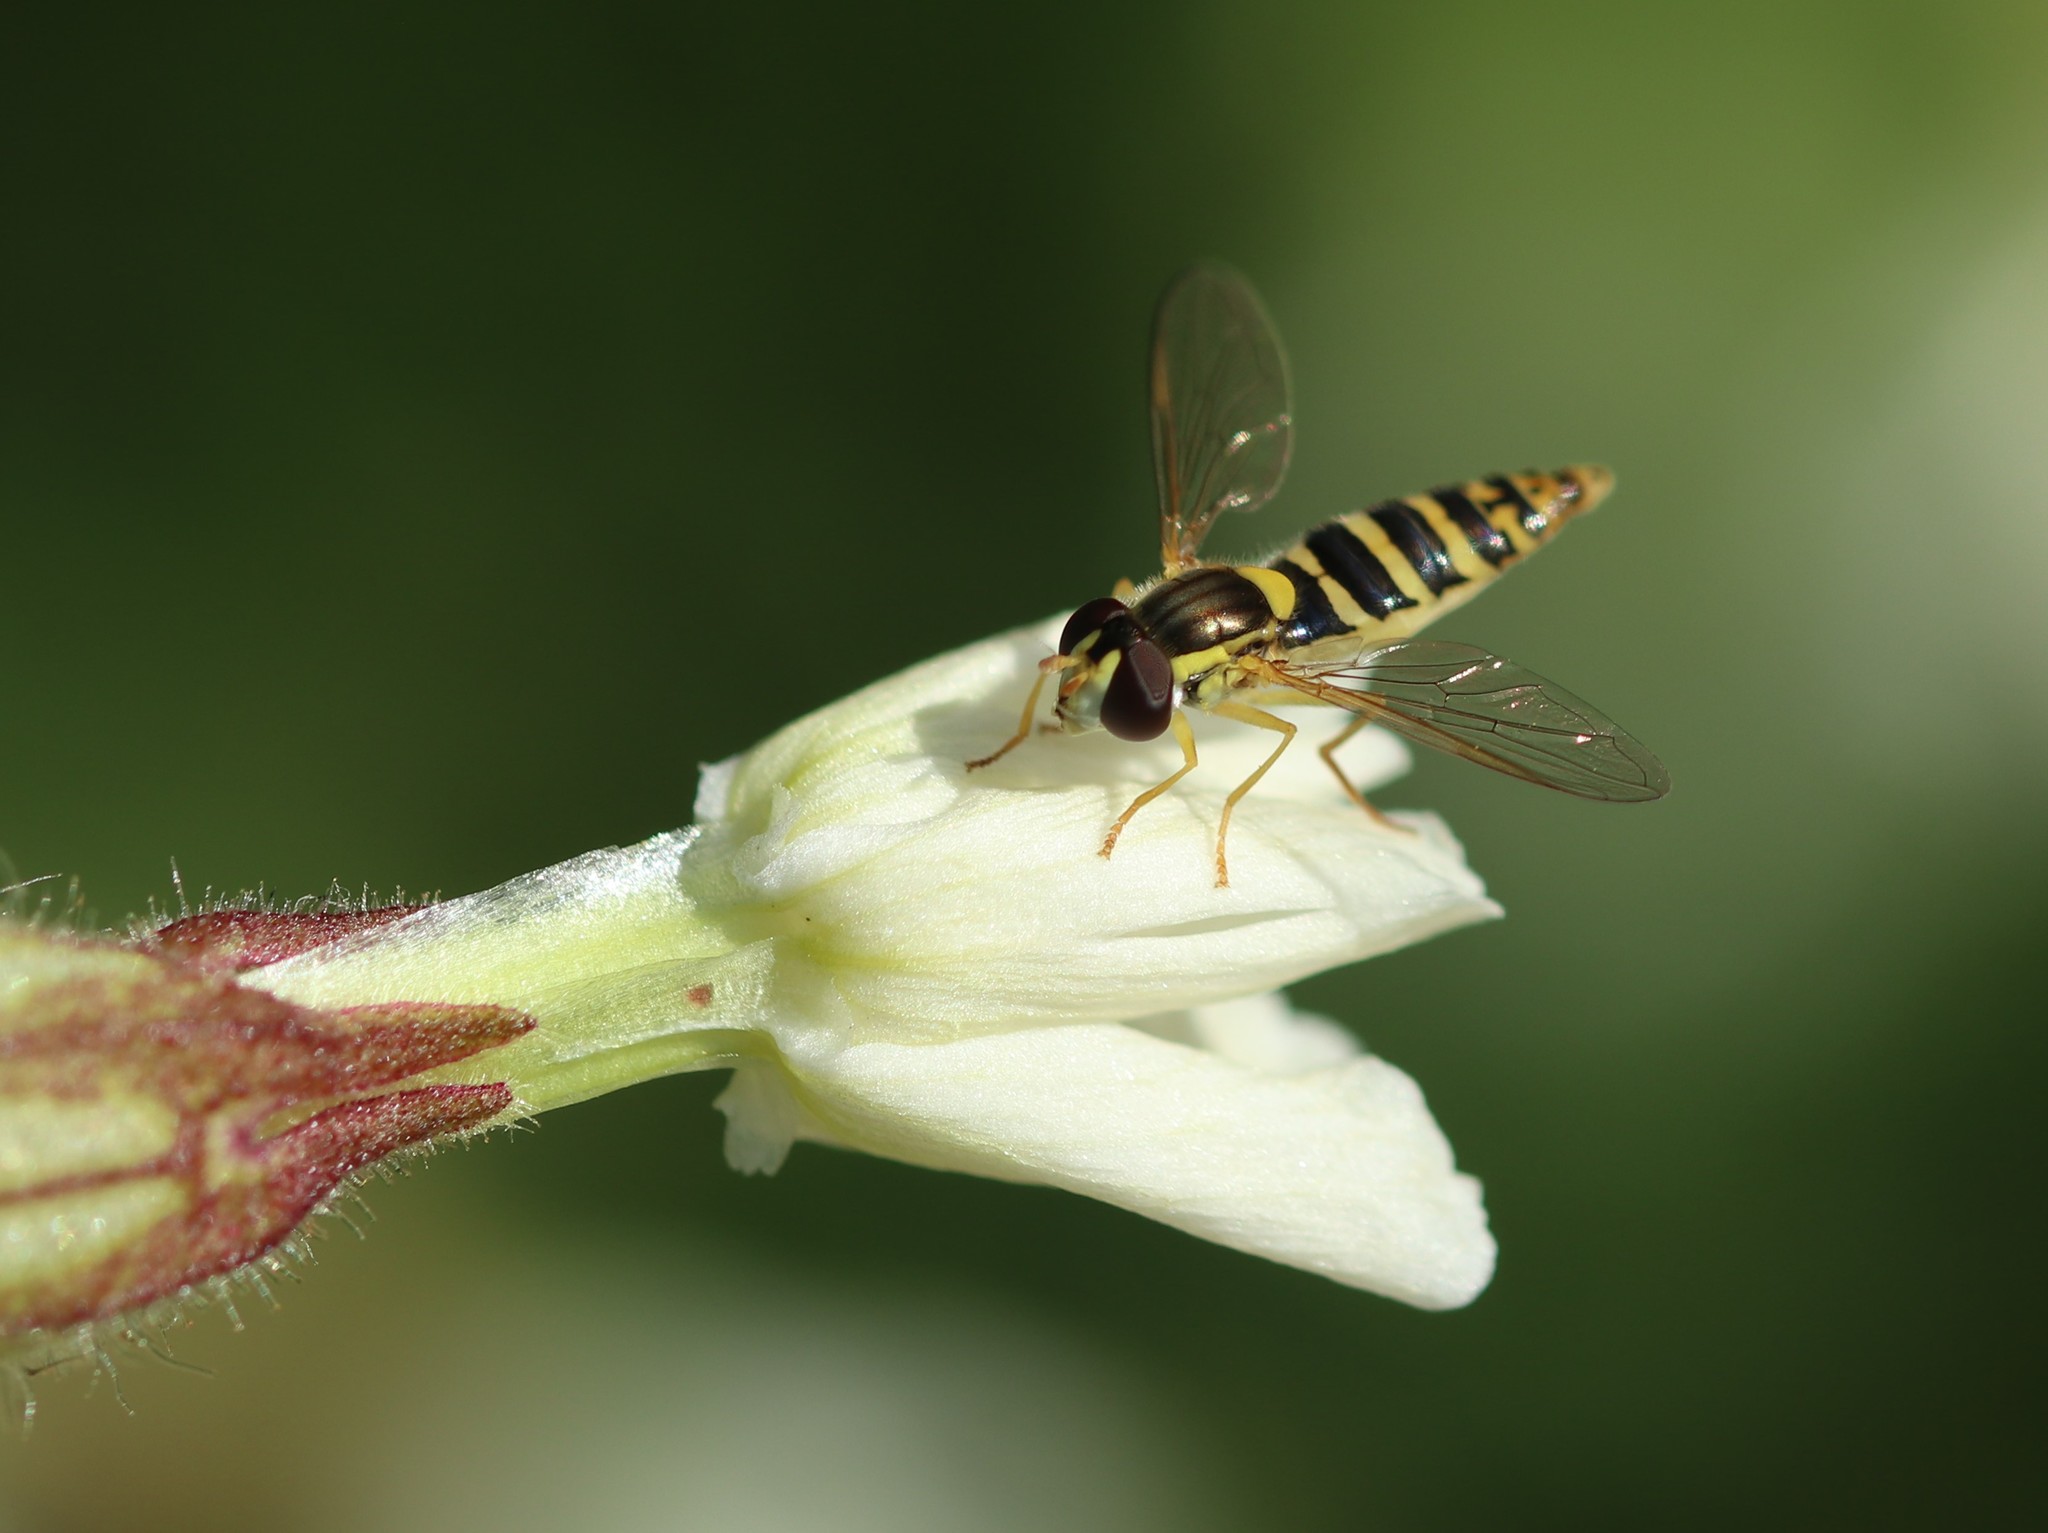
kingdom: Animalia
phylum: Arthropoda
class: Insecta
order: Diptera
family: Syrphidae
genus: Sphaerophoria
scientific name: Sphaerophoria
